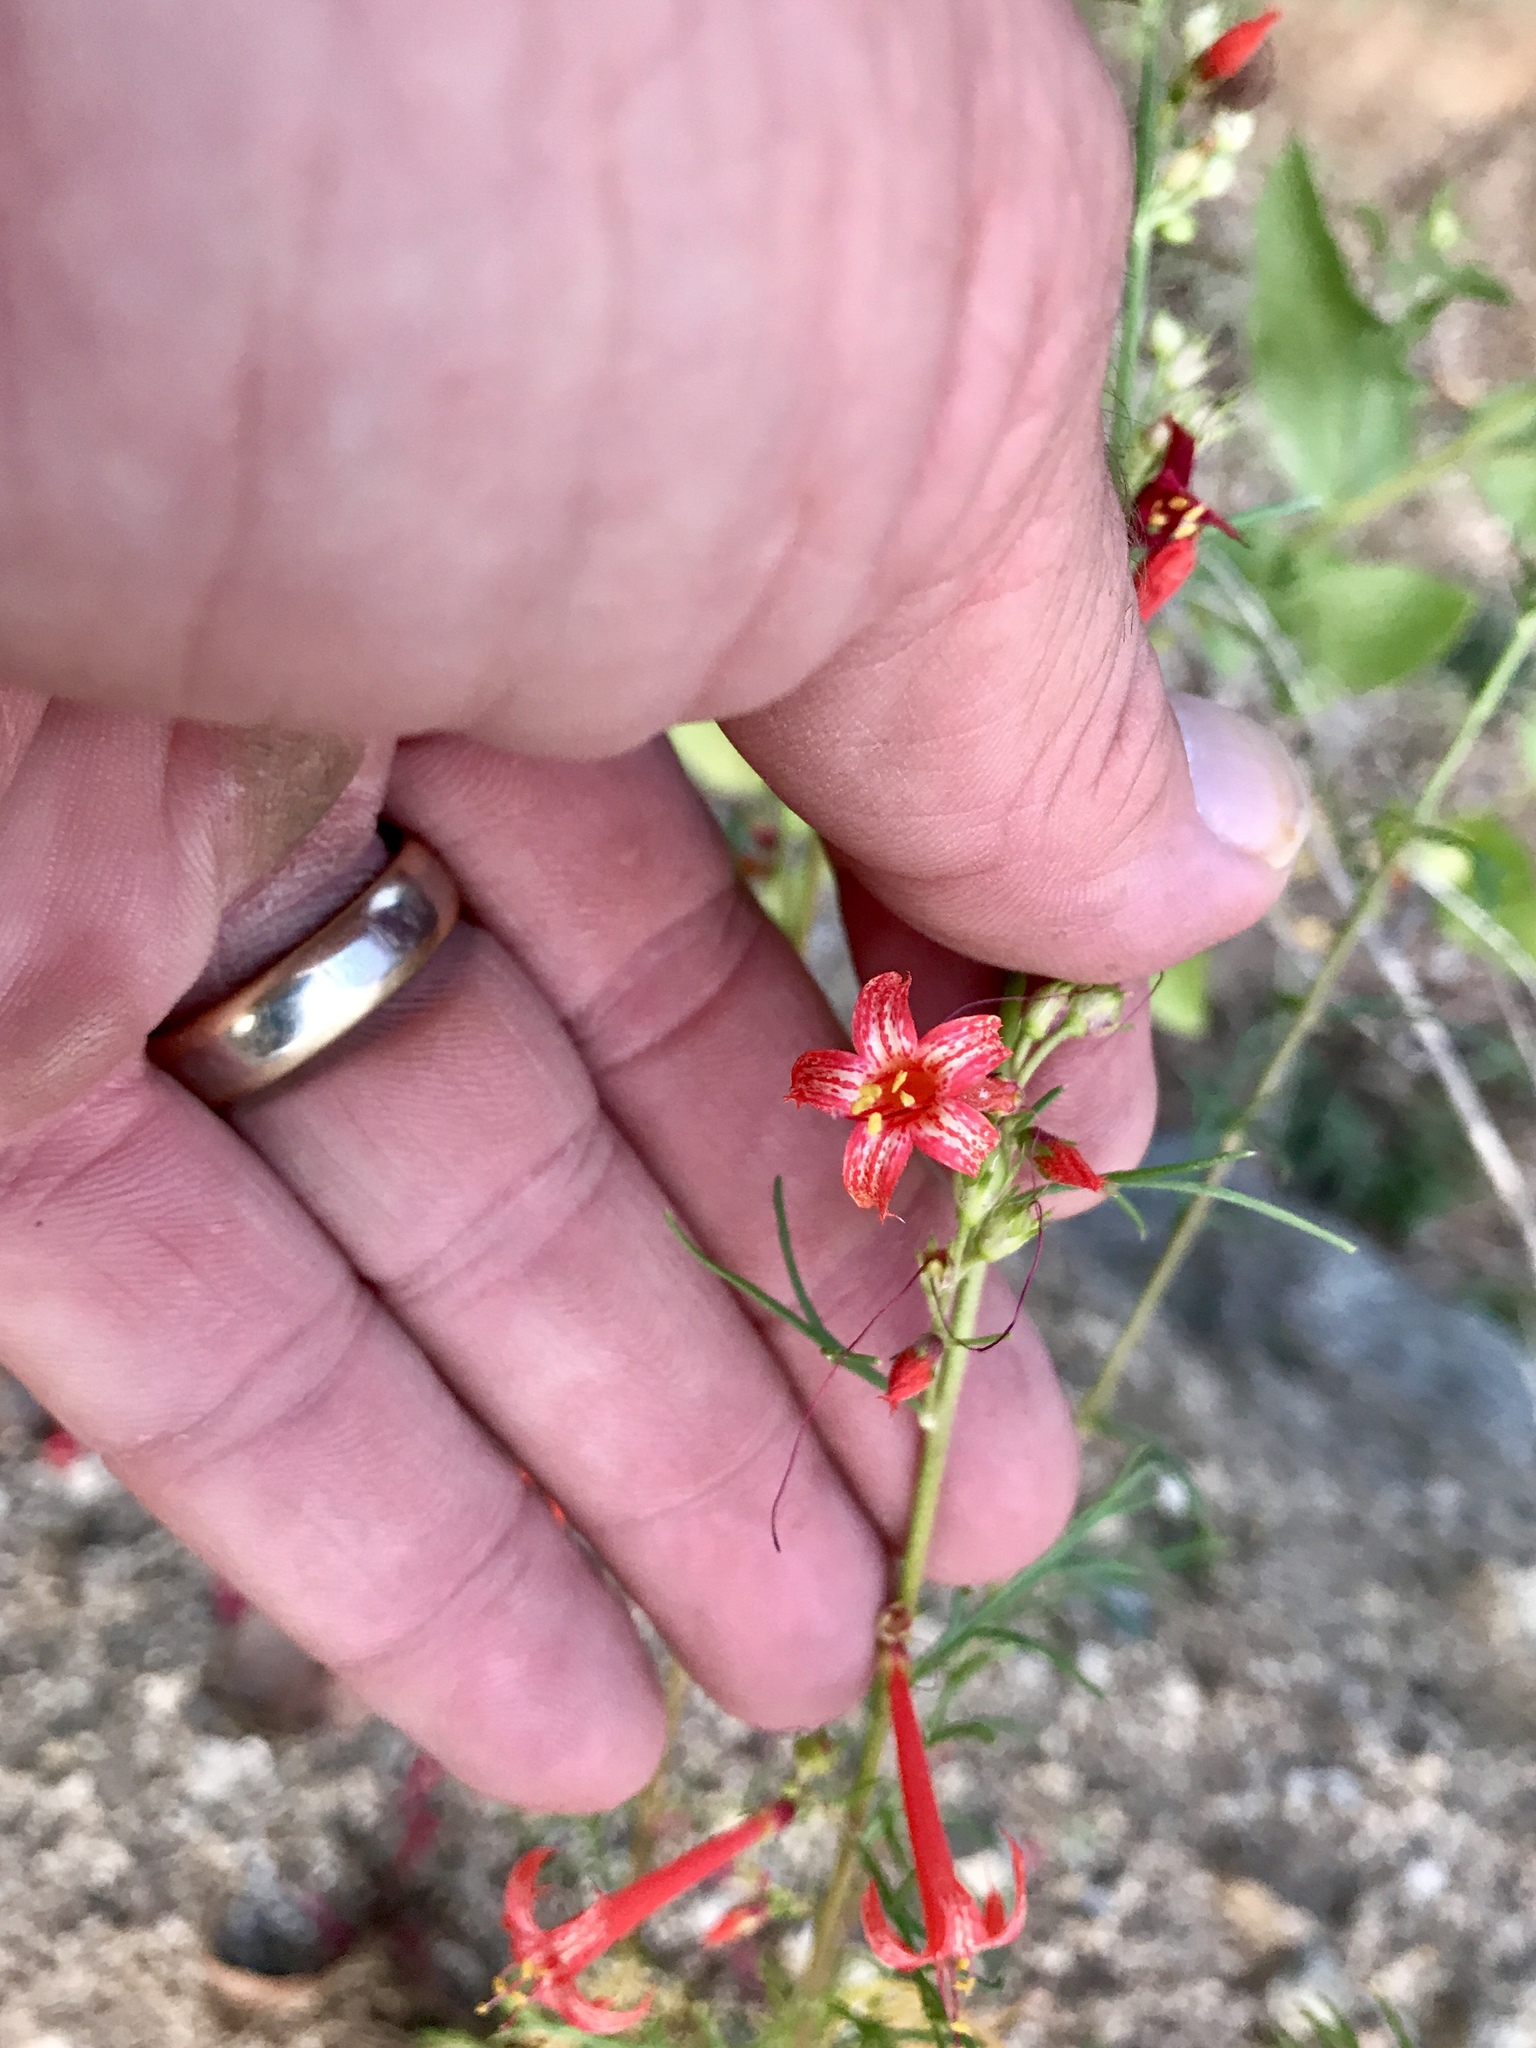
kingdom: Plantae
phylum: Tracheophyta
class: Magnoliopsida
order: Ericales
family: Polemoniaceae
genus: Ipomopsis
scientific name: Ipomopsis aggregata
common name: Scarlet gilia
